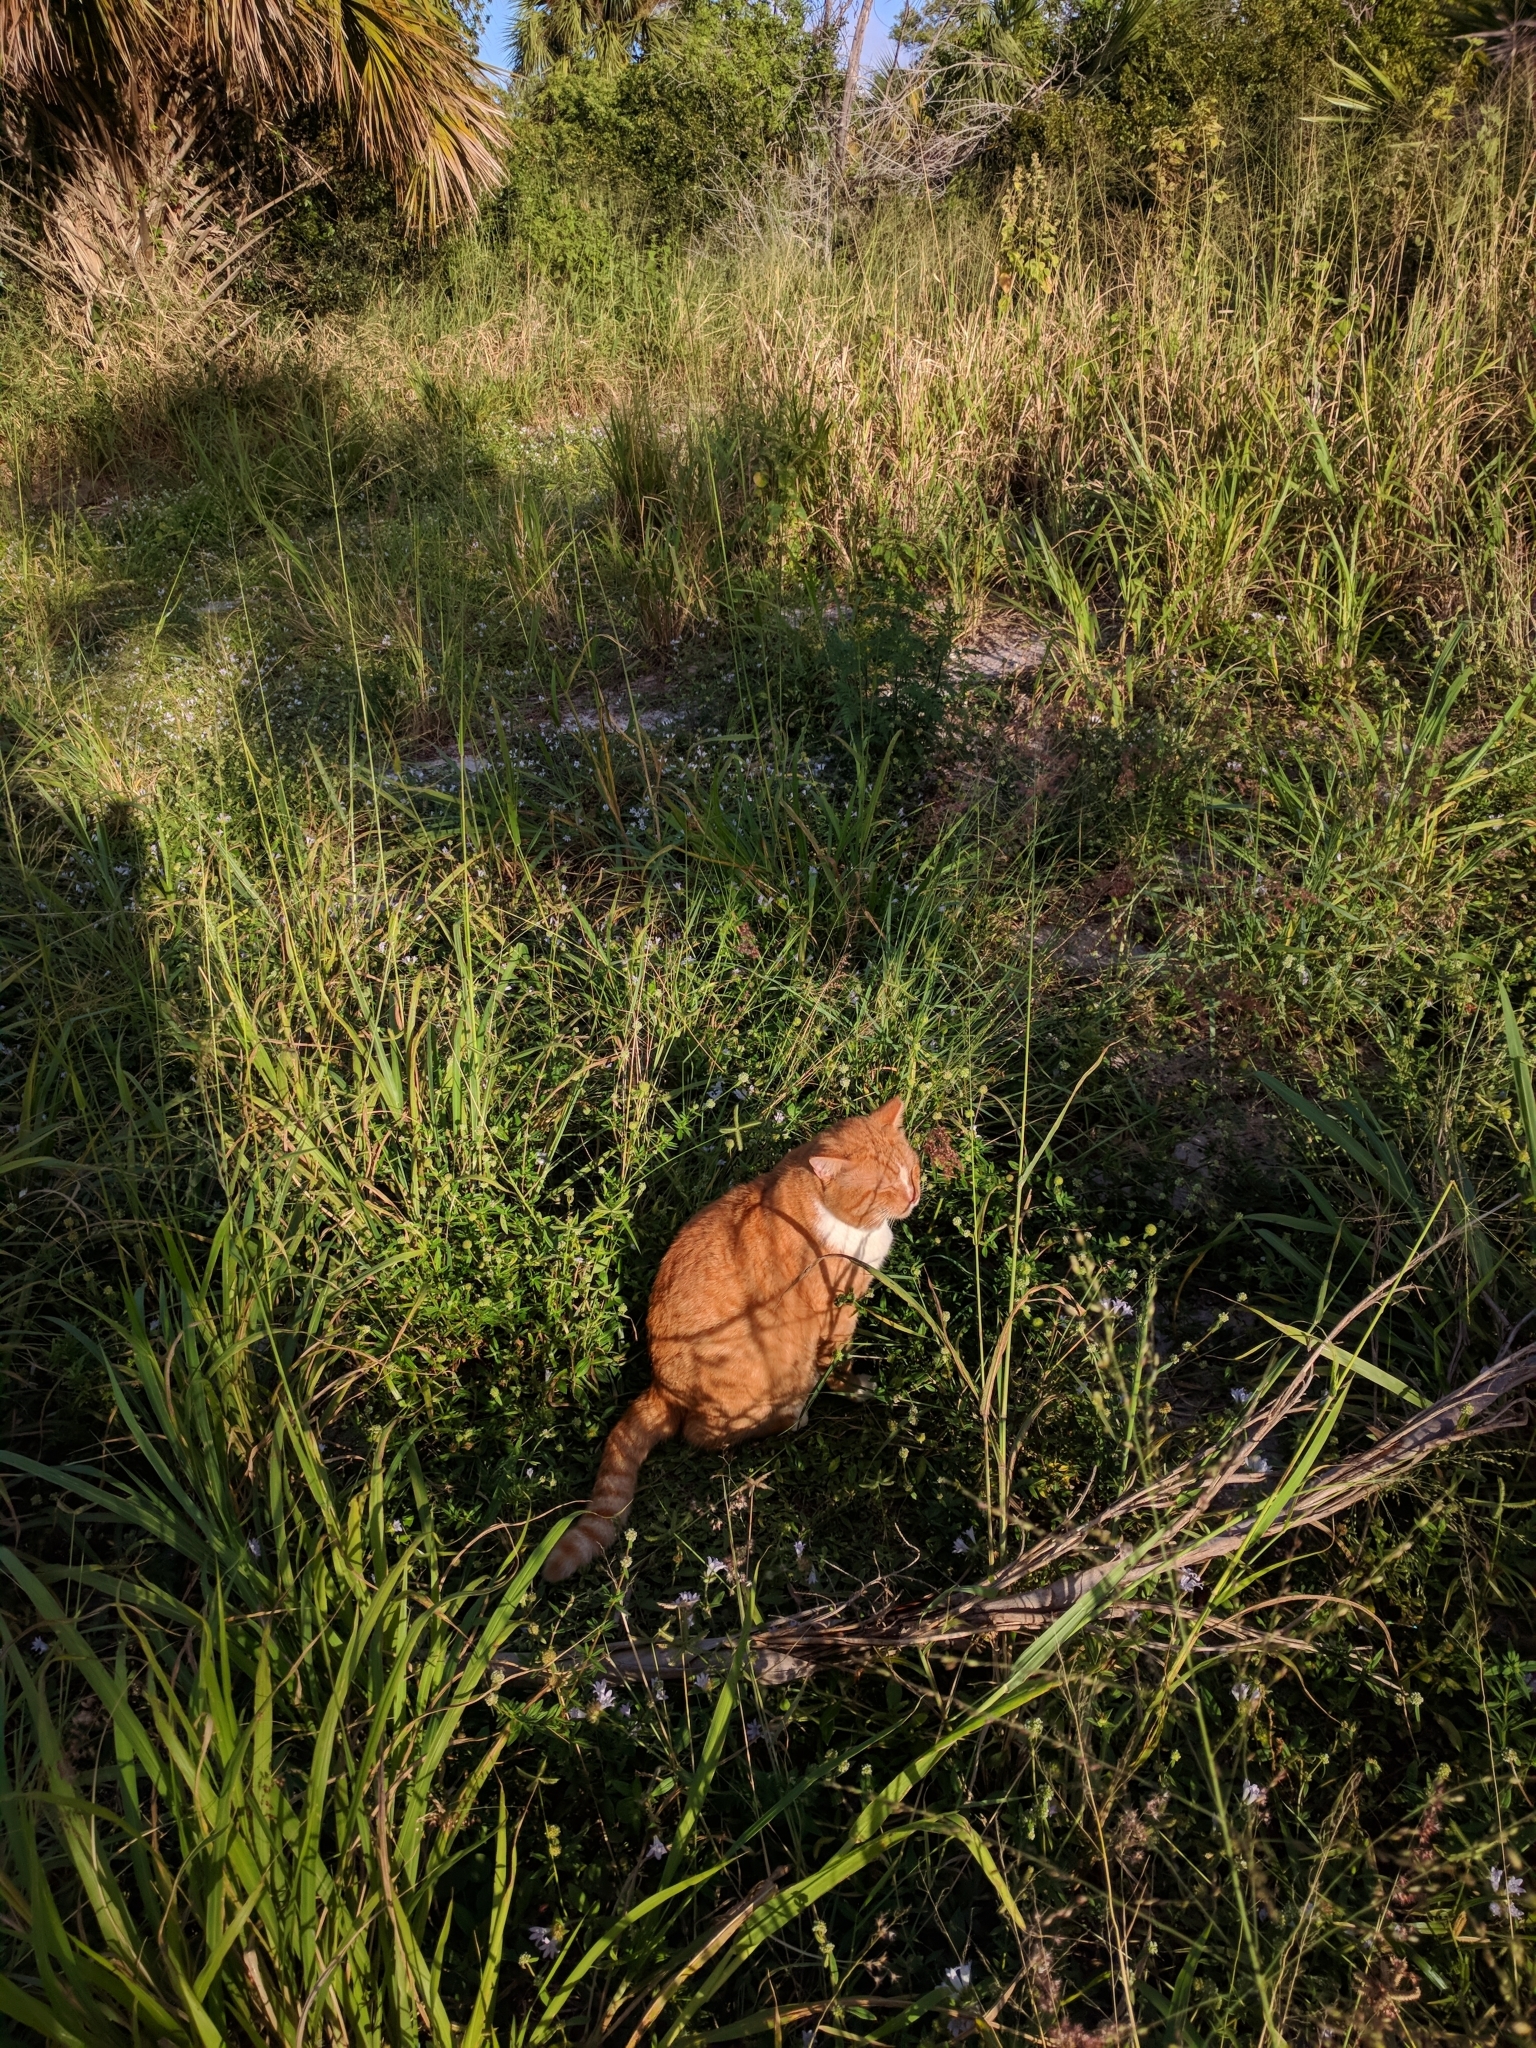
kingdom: Animalia
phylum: Chordata
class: Mammalia
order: Carnivora
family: Felidae
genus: Felis
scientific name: Felis catus
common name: Domestic cat
